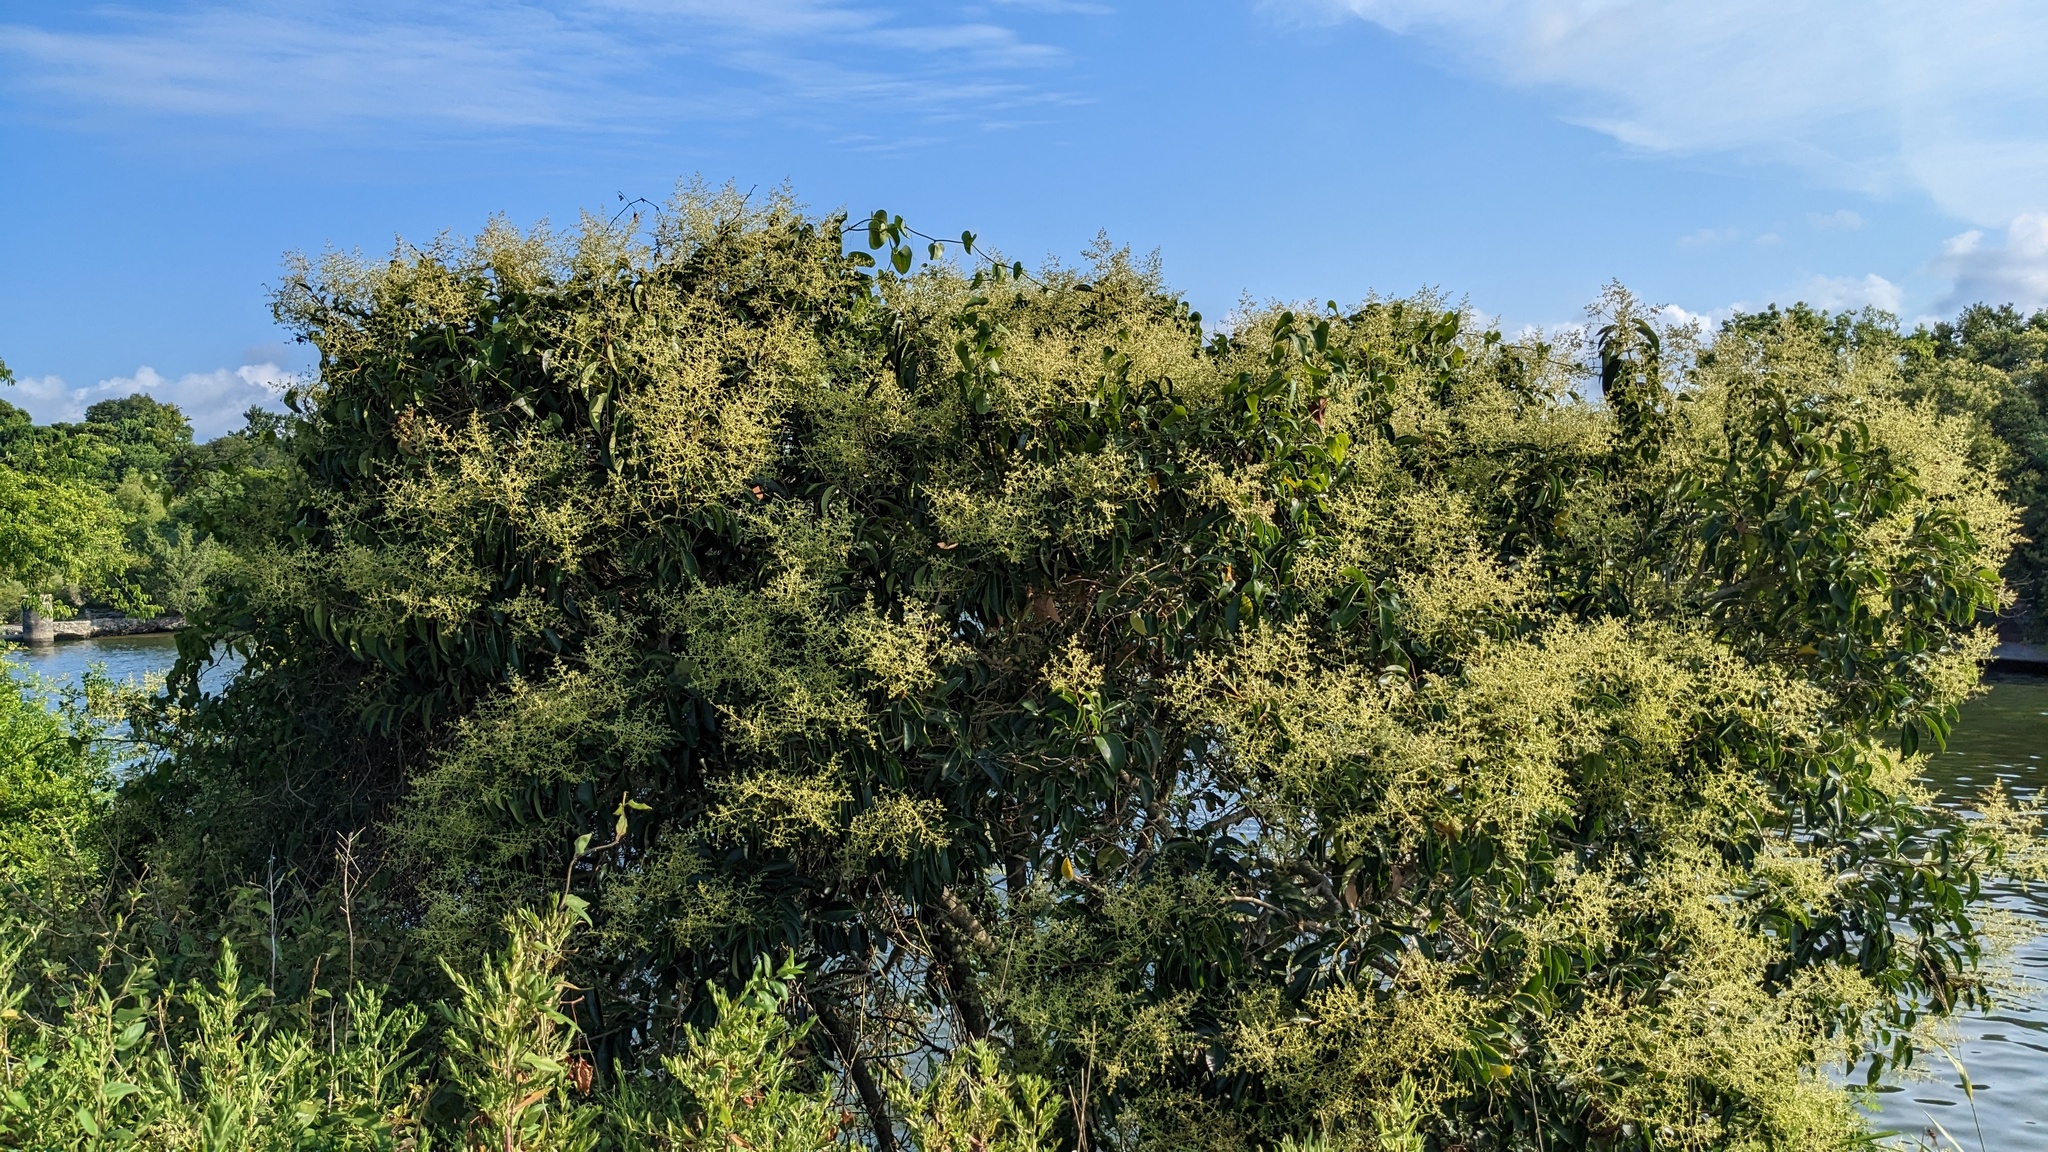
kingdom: Plantae
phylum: Tracheophyta
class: Magnoliopsida
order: Lamiales
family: Oleaceae
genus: Ligustrum
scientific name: Ligustrum lucidum
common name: Glossy privet
